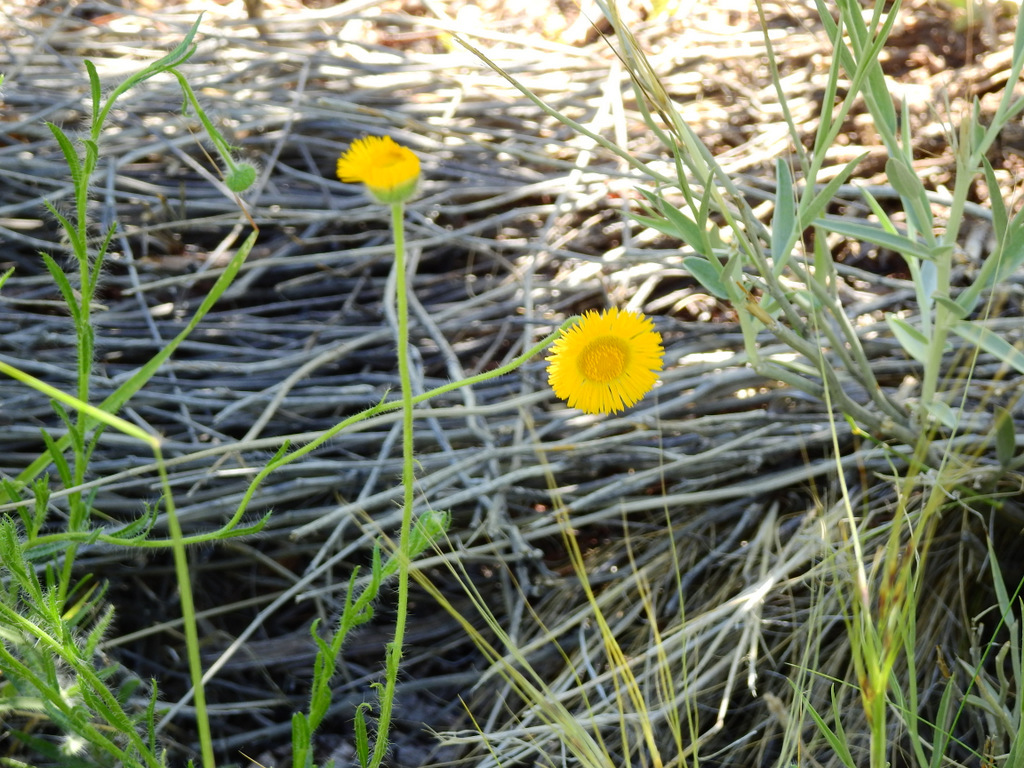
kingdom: Plantae
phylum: Tracheophyta
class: Magnoliopsida
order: Asterales
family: Asteraceae
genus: Hysterionica
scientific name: Hysterionica jasionoides
